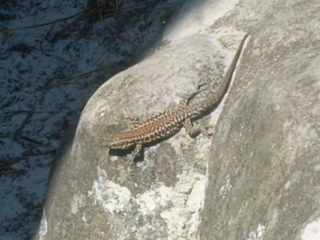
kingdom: Animalia
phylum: Chordata
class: Squamata
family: Lacertidae
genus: Podarcis
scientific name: Podarcis muralis
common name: Common wall lizard
